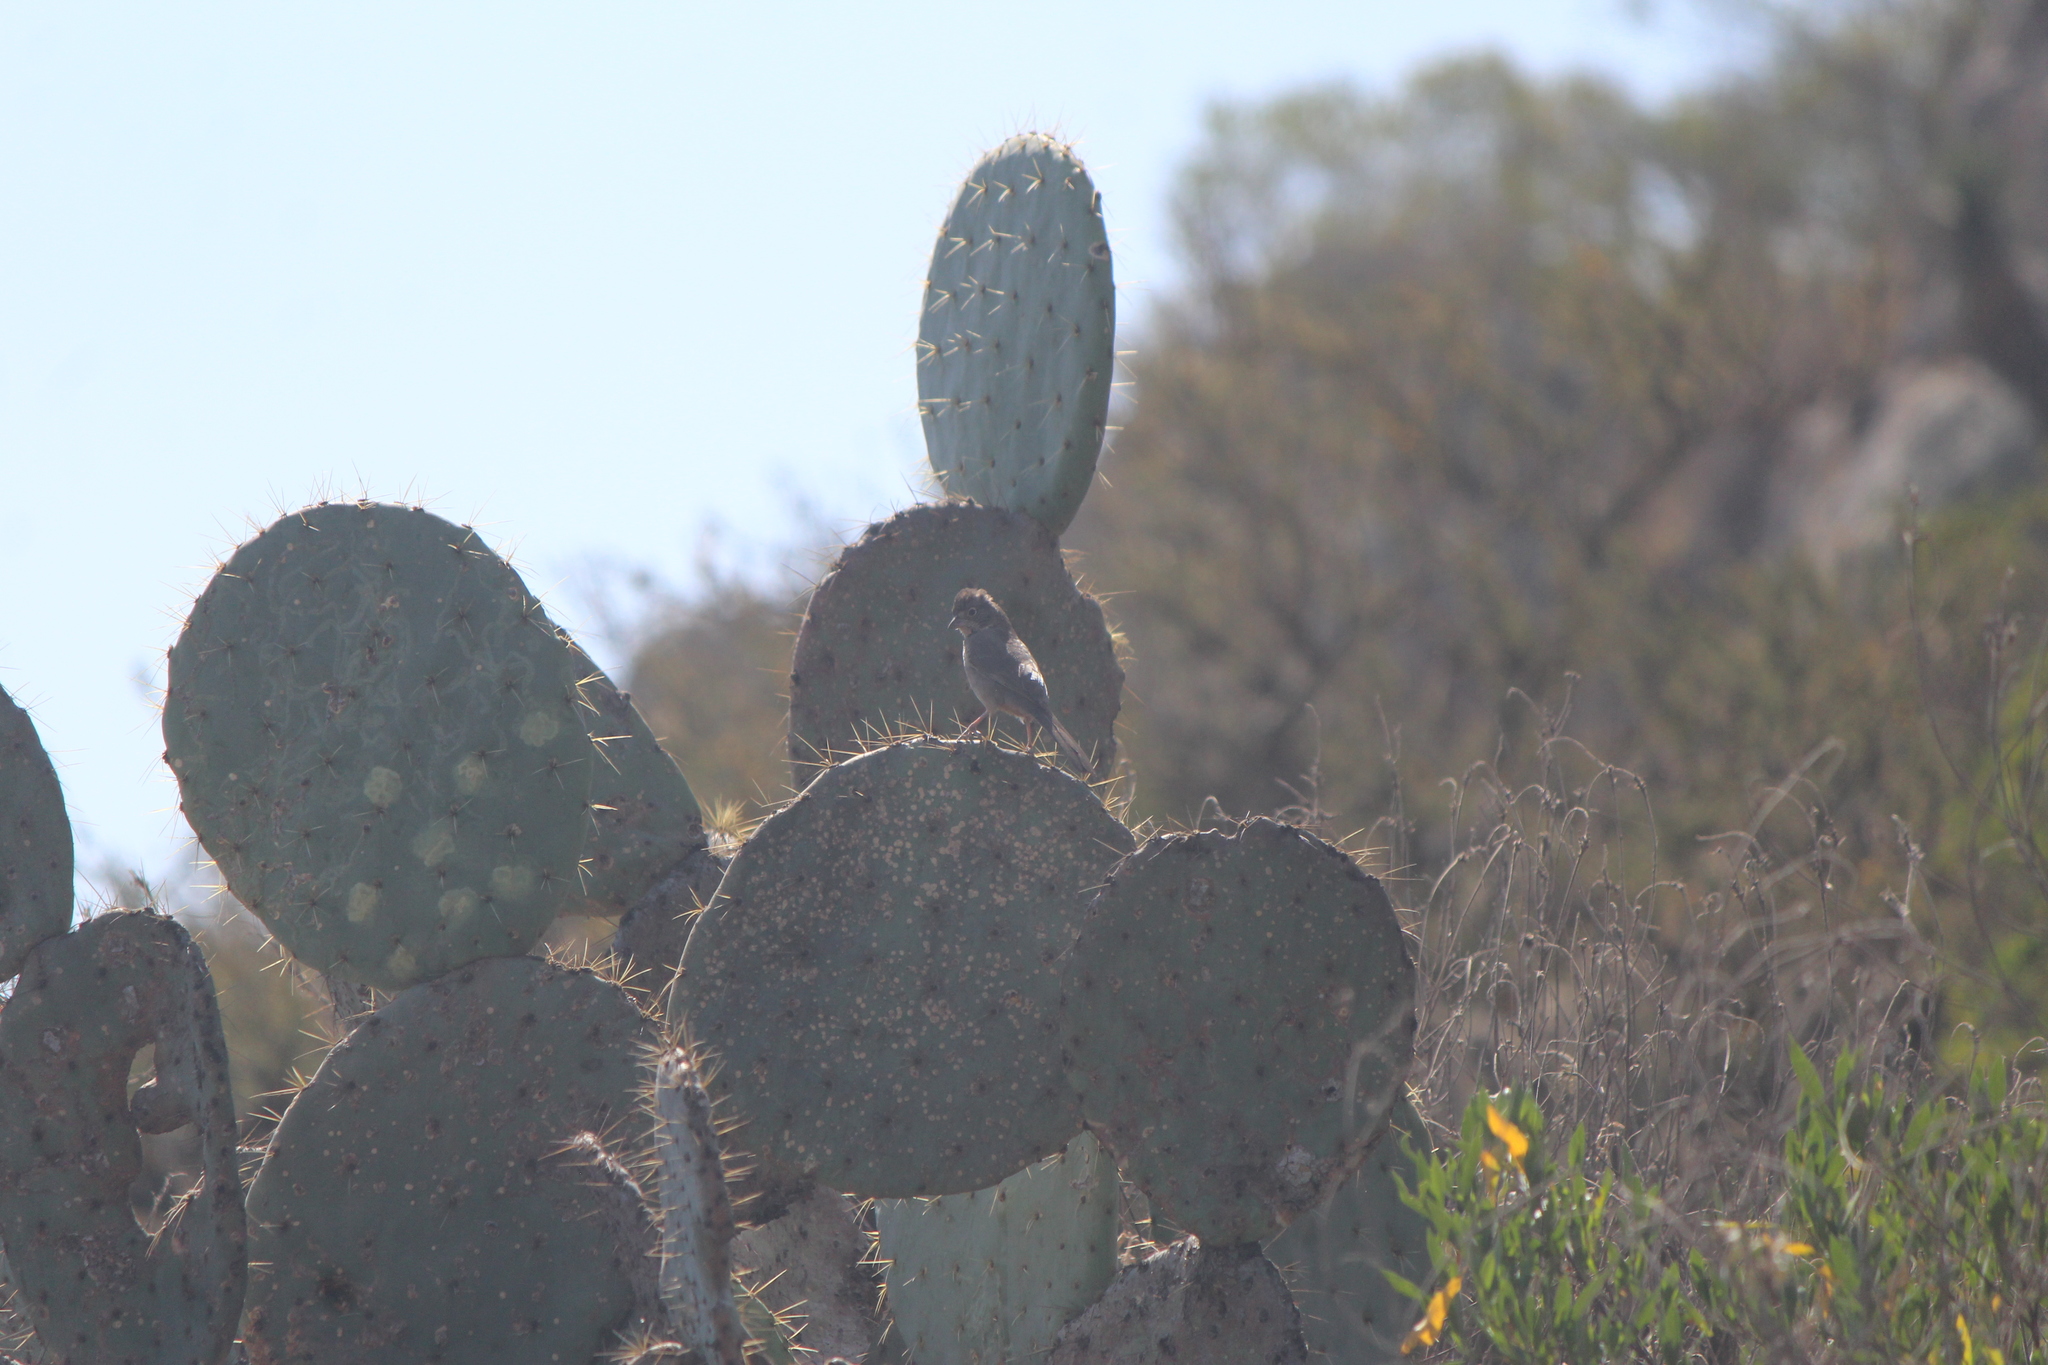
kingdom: Animalia
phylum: Chordata
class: Aves
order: Passeriformes
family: Passerellidae
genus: Melozone
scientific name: Melozone fusca
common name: Canyon towhee
